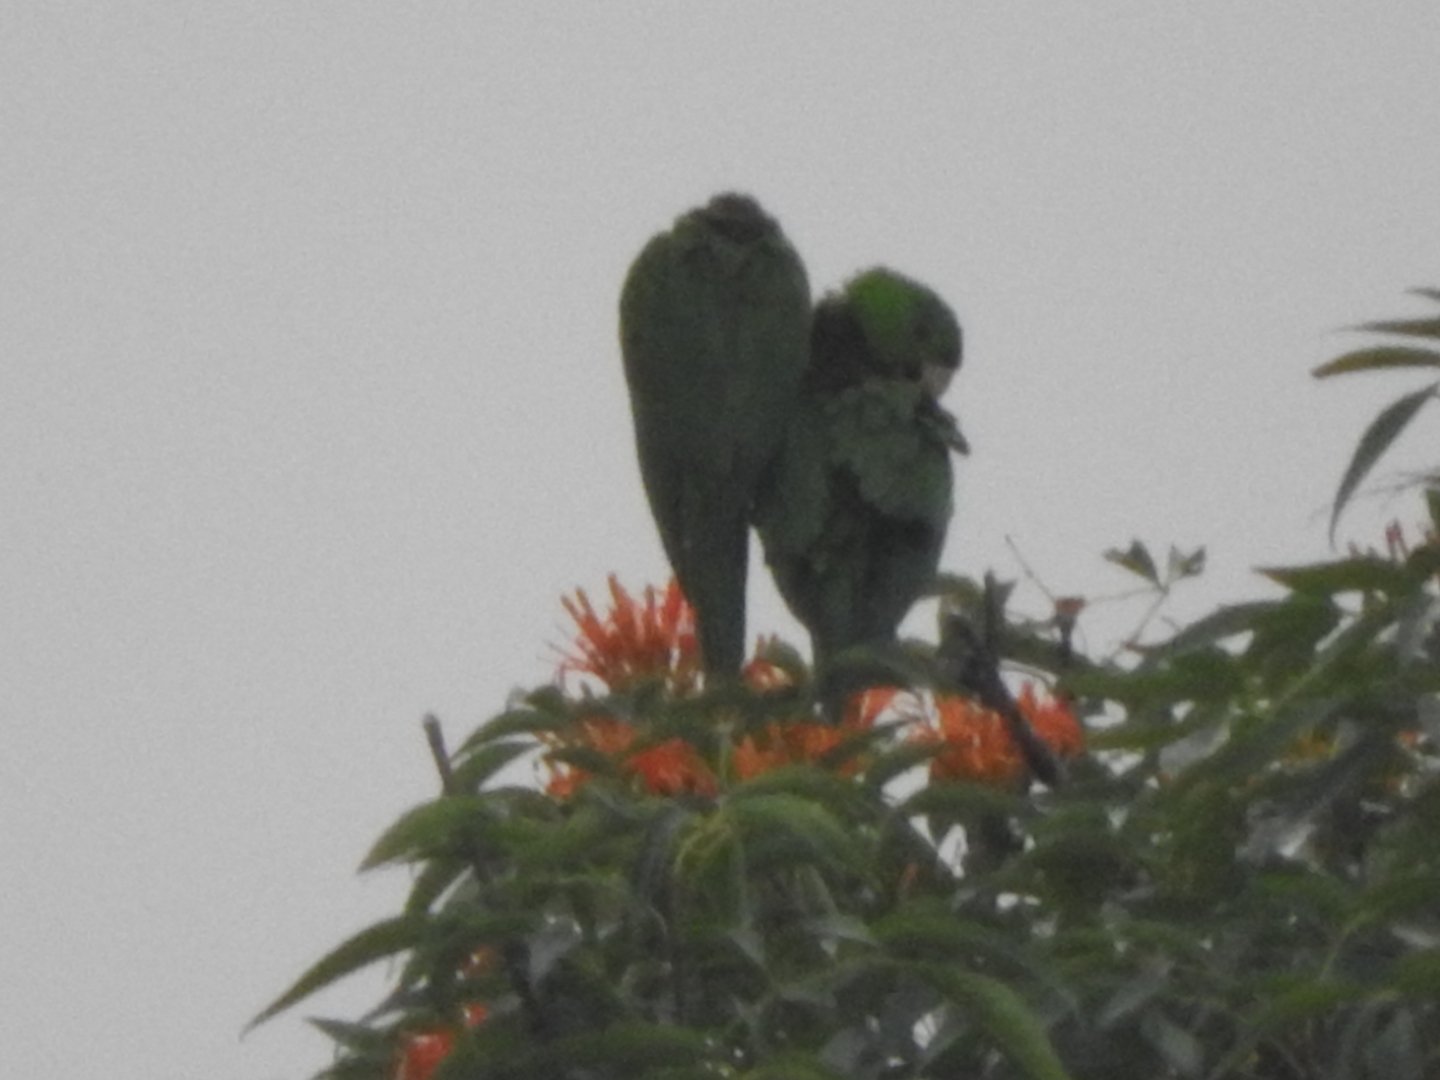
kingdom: Animalia
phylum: Chordata
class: Aves
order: Psittaciformes
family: Psittacidae
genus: Aratinga
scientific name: Aratinga holochlora
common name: Green parakeet
